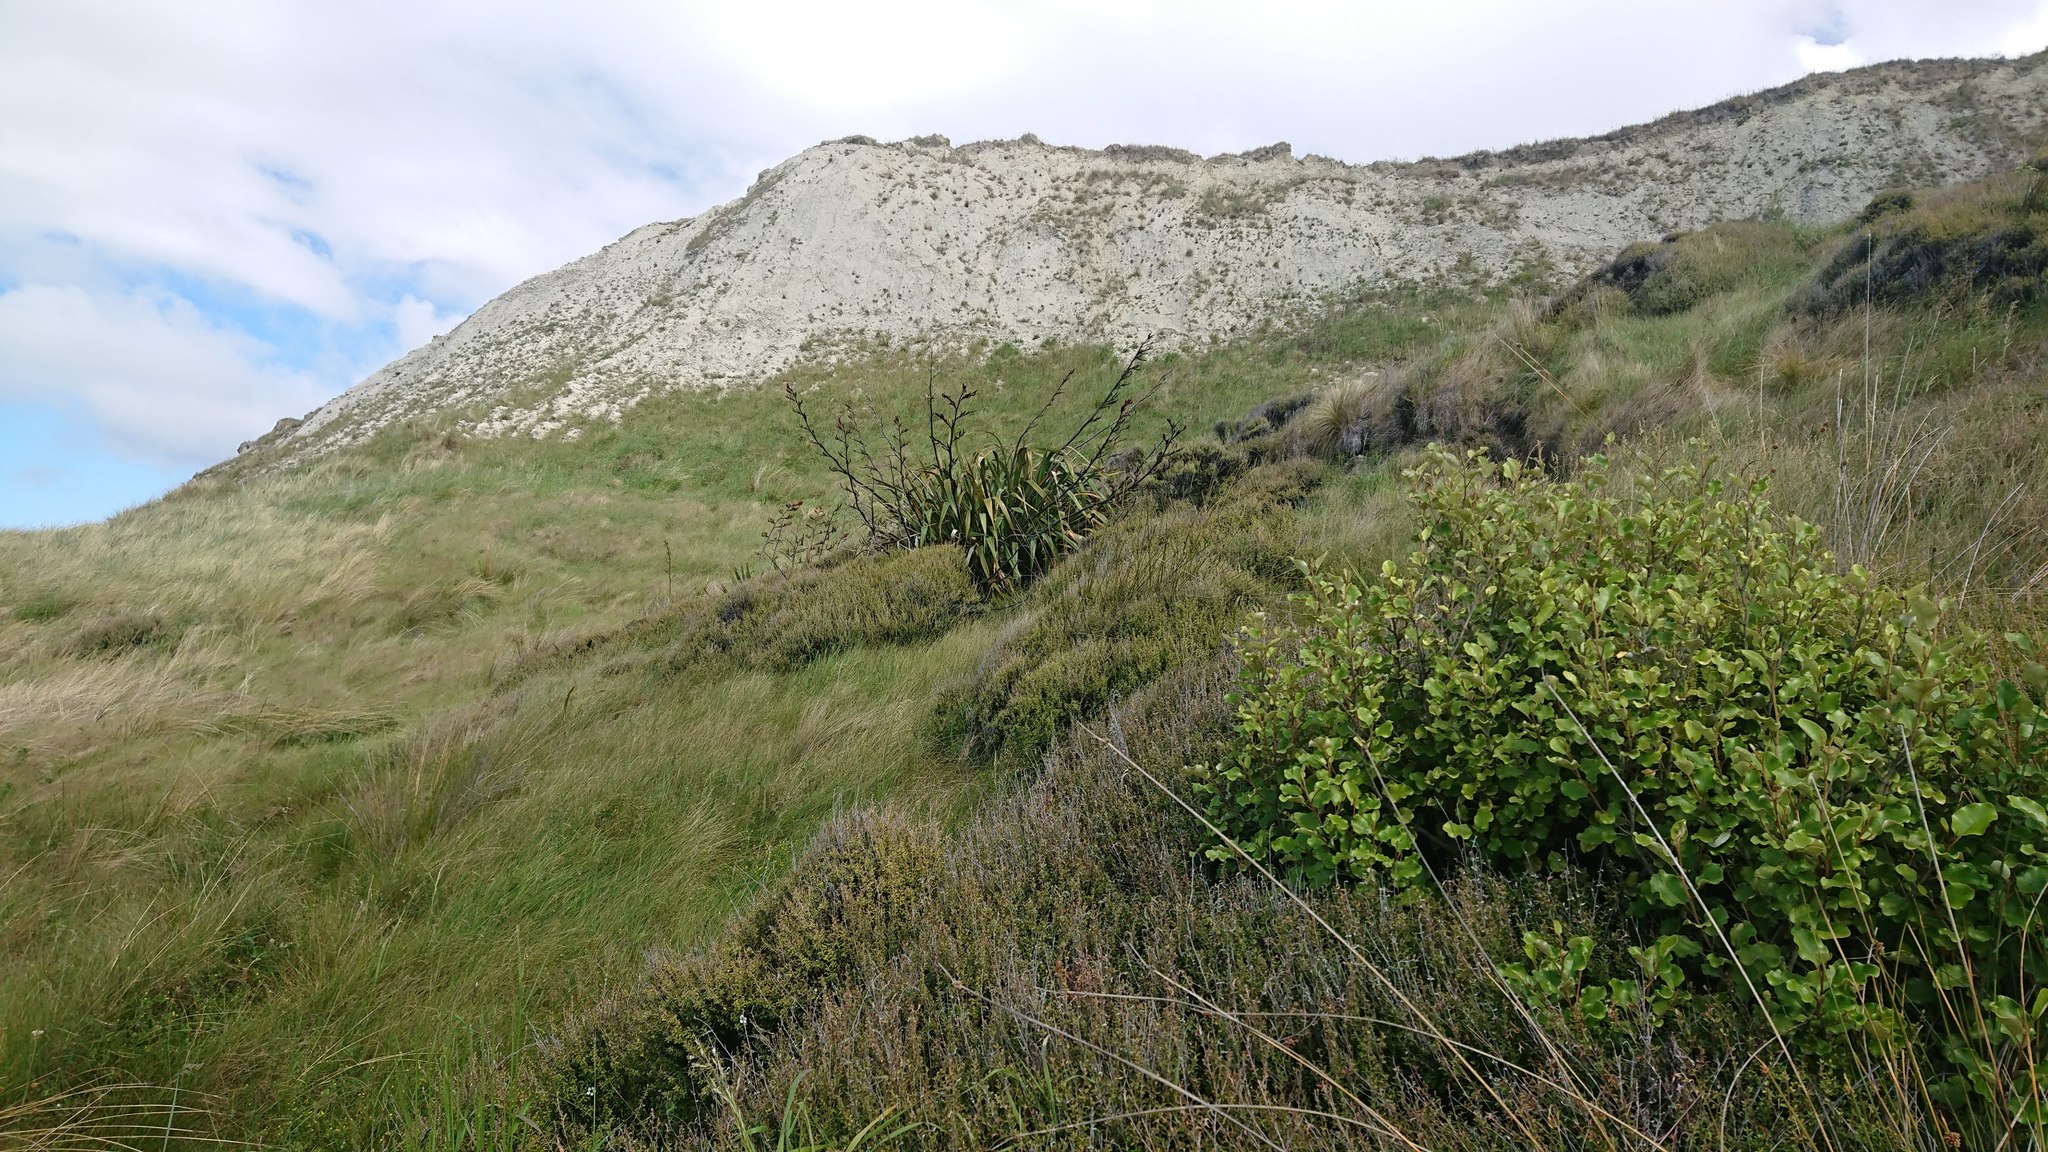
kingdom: Plantae
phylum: Tracheophyta
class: Liliopsida
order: Asparagales
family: Asphodelaceae
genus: Phormium
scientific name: Phormium tenax
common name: New zealand flax
